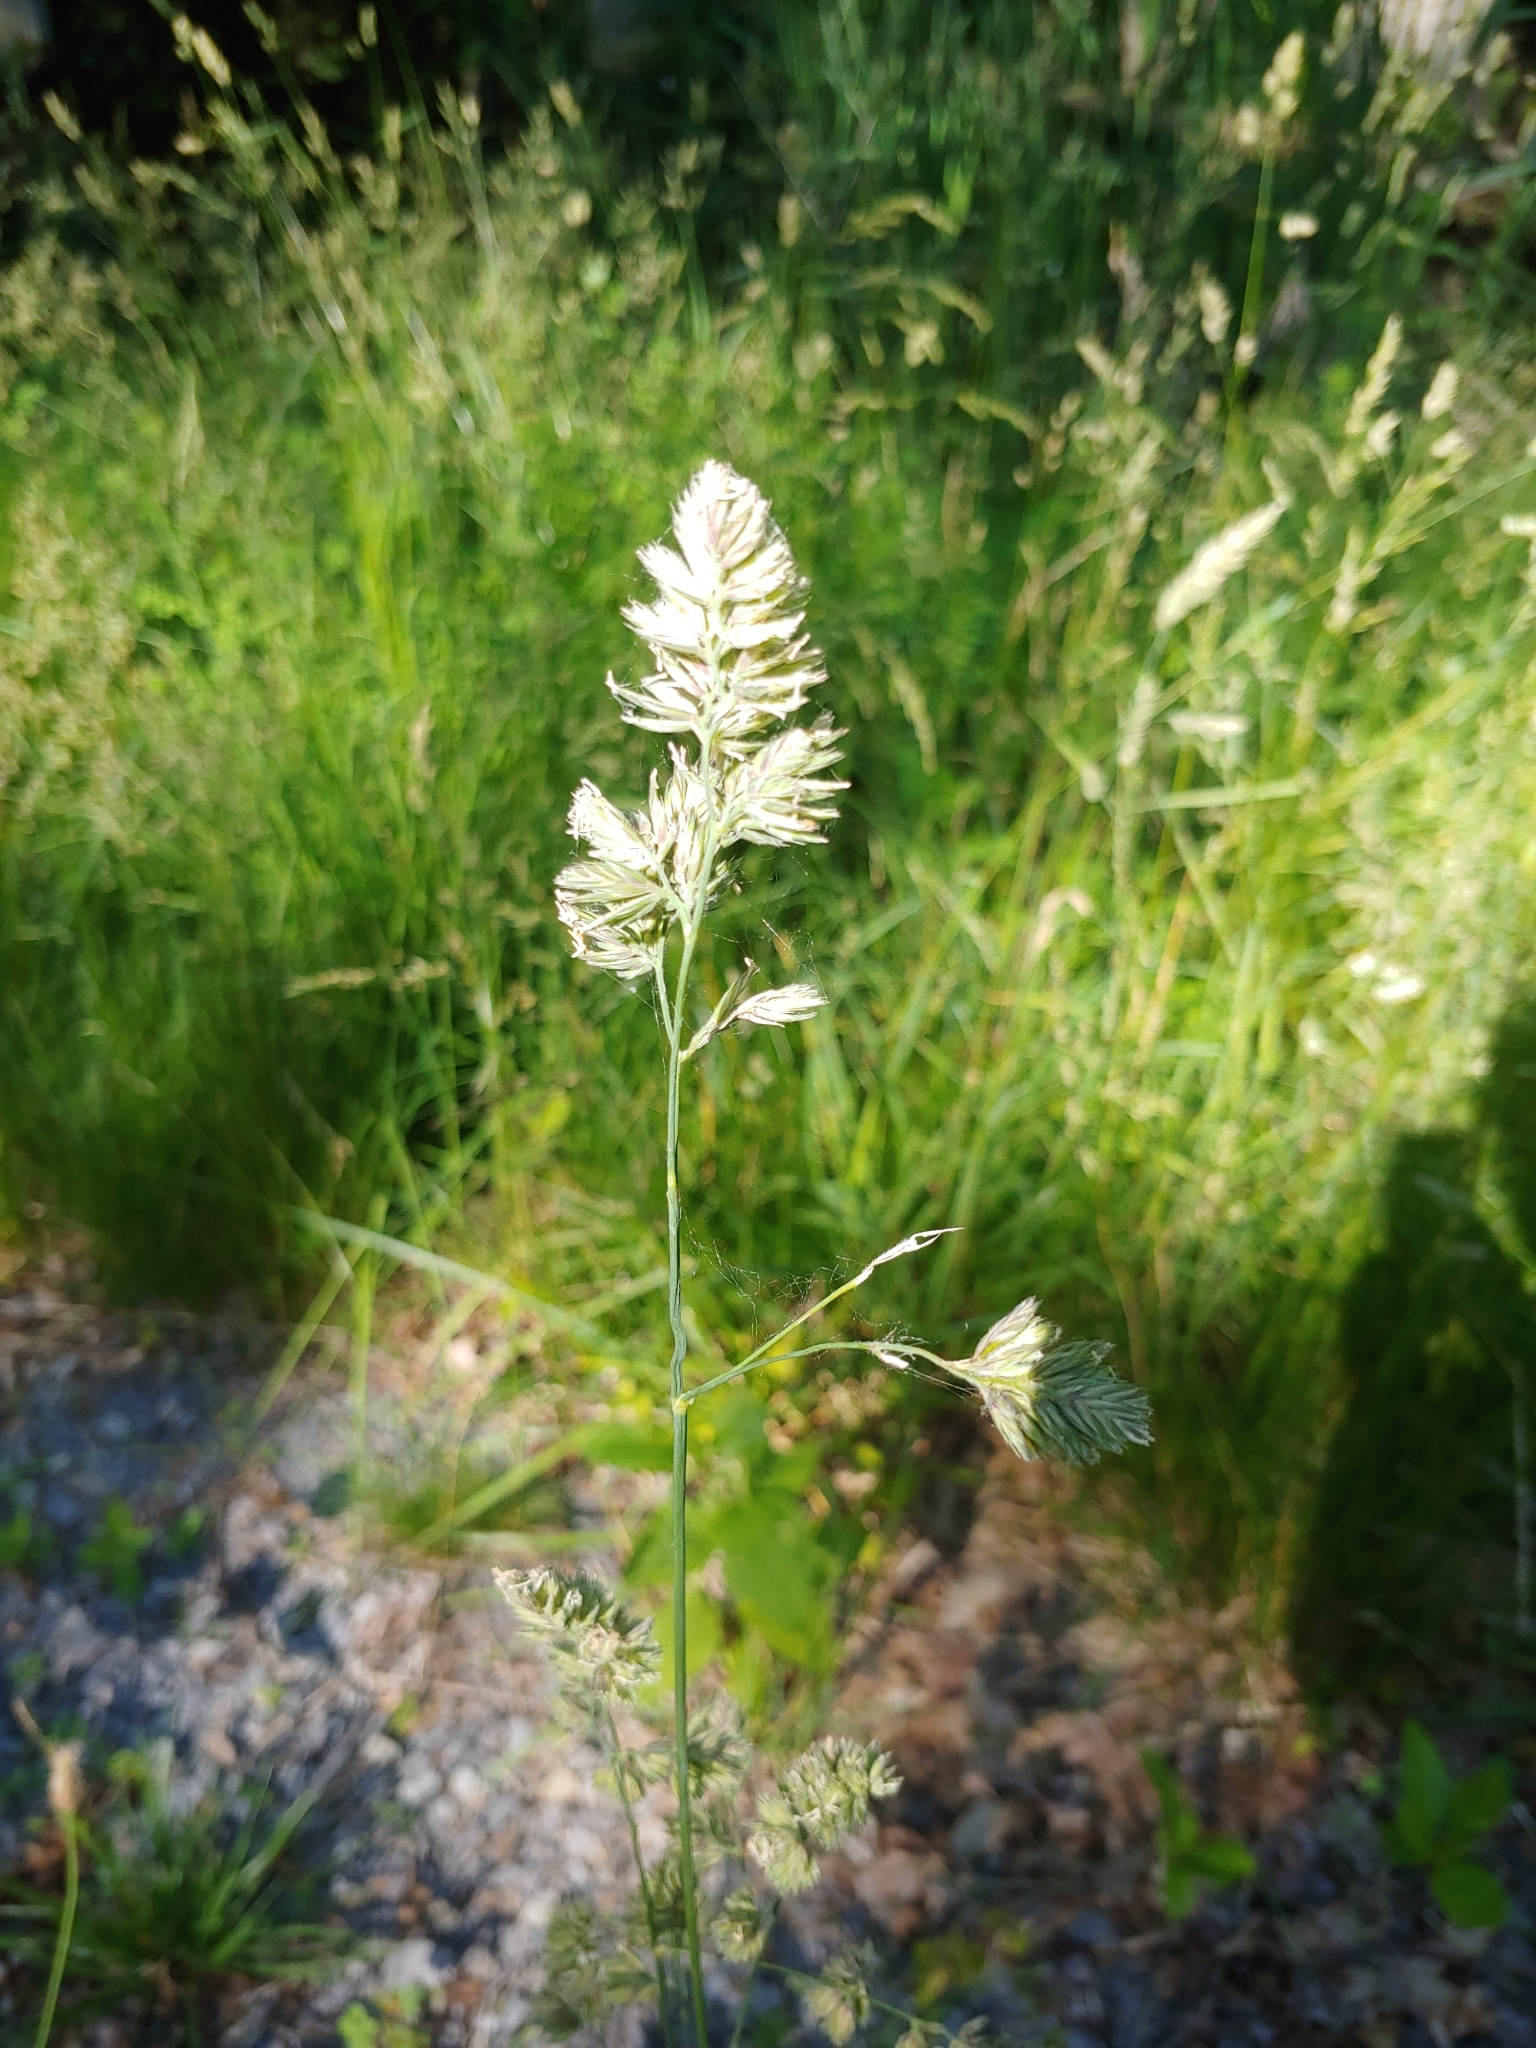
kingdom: Plantae
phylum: Tracheophyta
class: Liliopsida
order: Poales
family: Poaceae
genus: Dactylis
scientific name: Dactylis glomerata
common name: Orchardgrass
